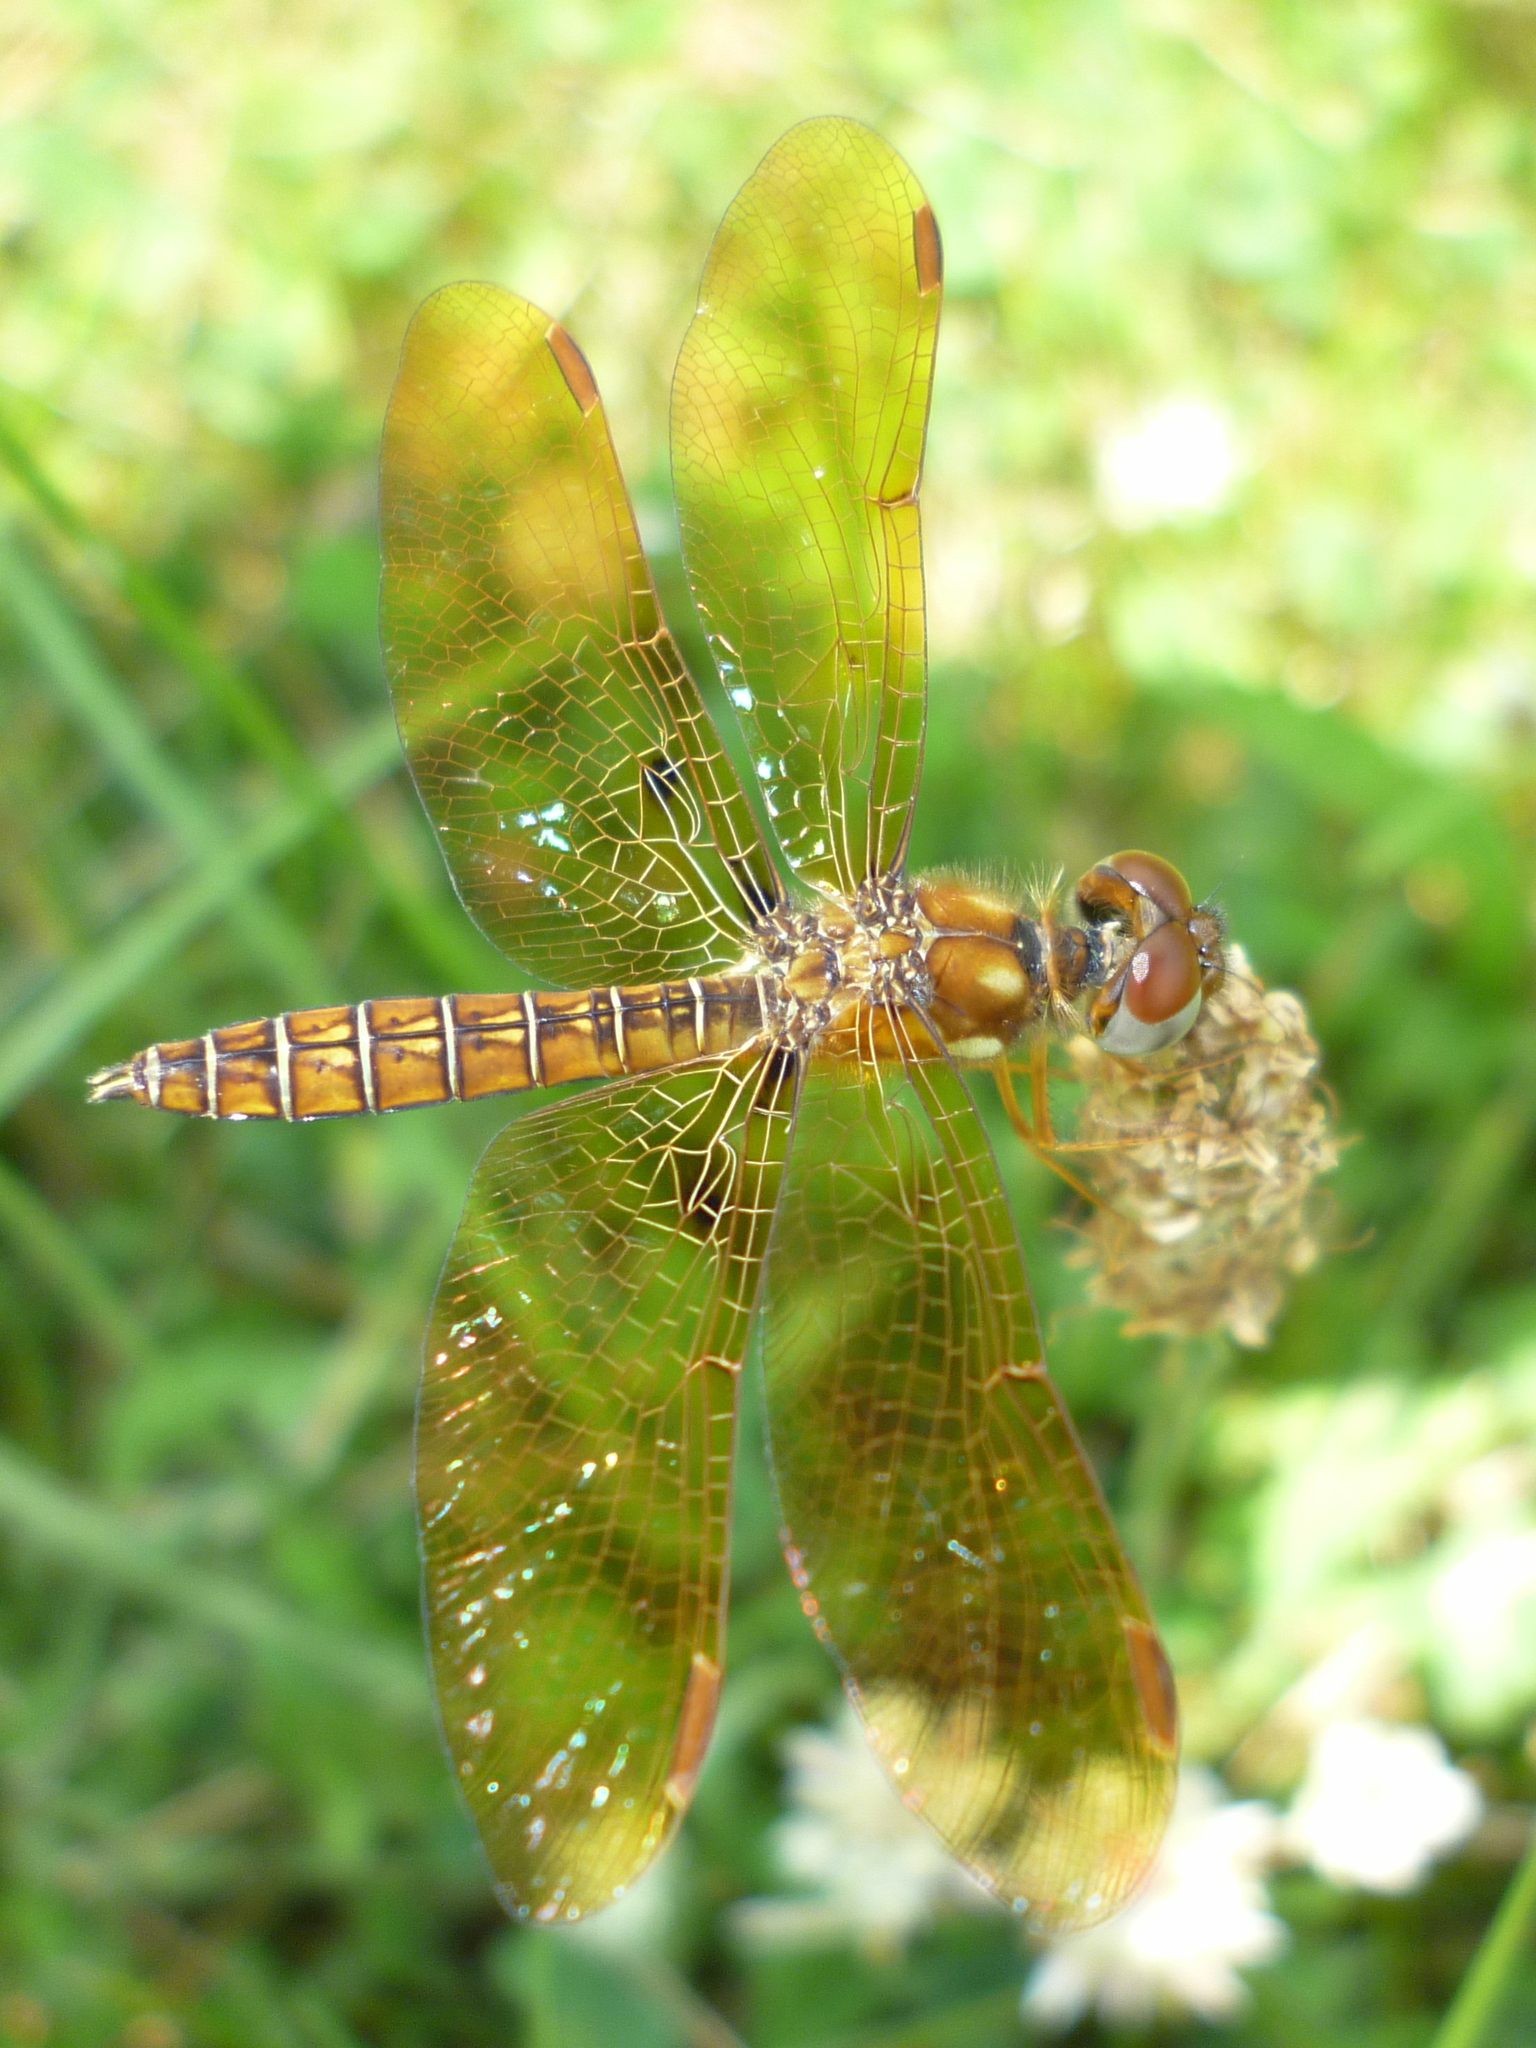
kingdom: Animalia
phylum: Arthropoda
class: Insecta
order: Odonata
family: Libellulidae
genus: Perithemis
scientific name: Perithemis tenera
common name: Eastern amberwing
